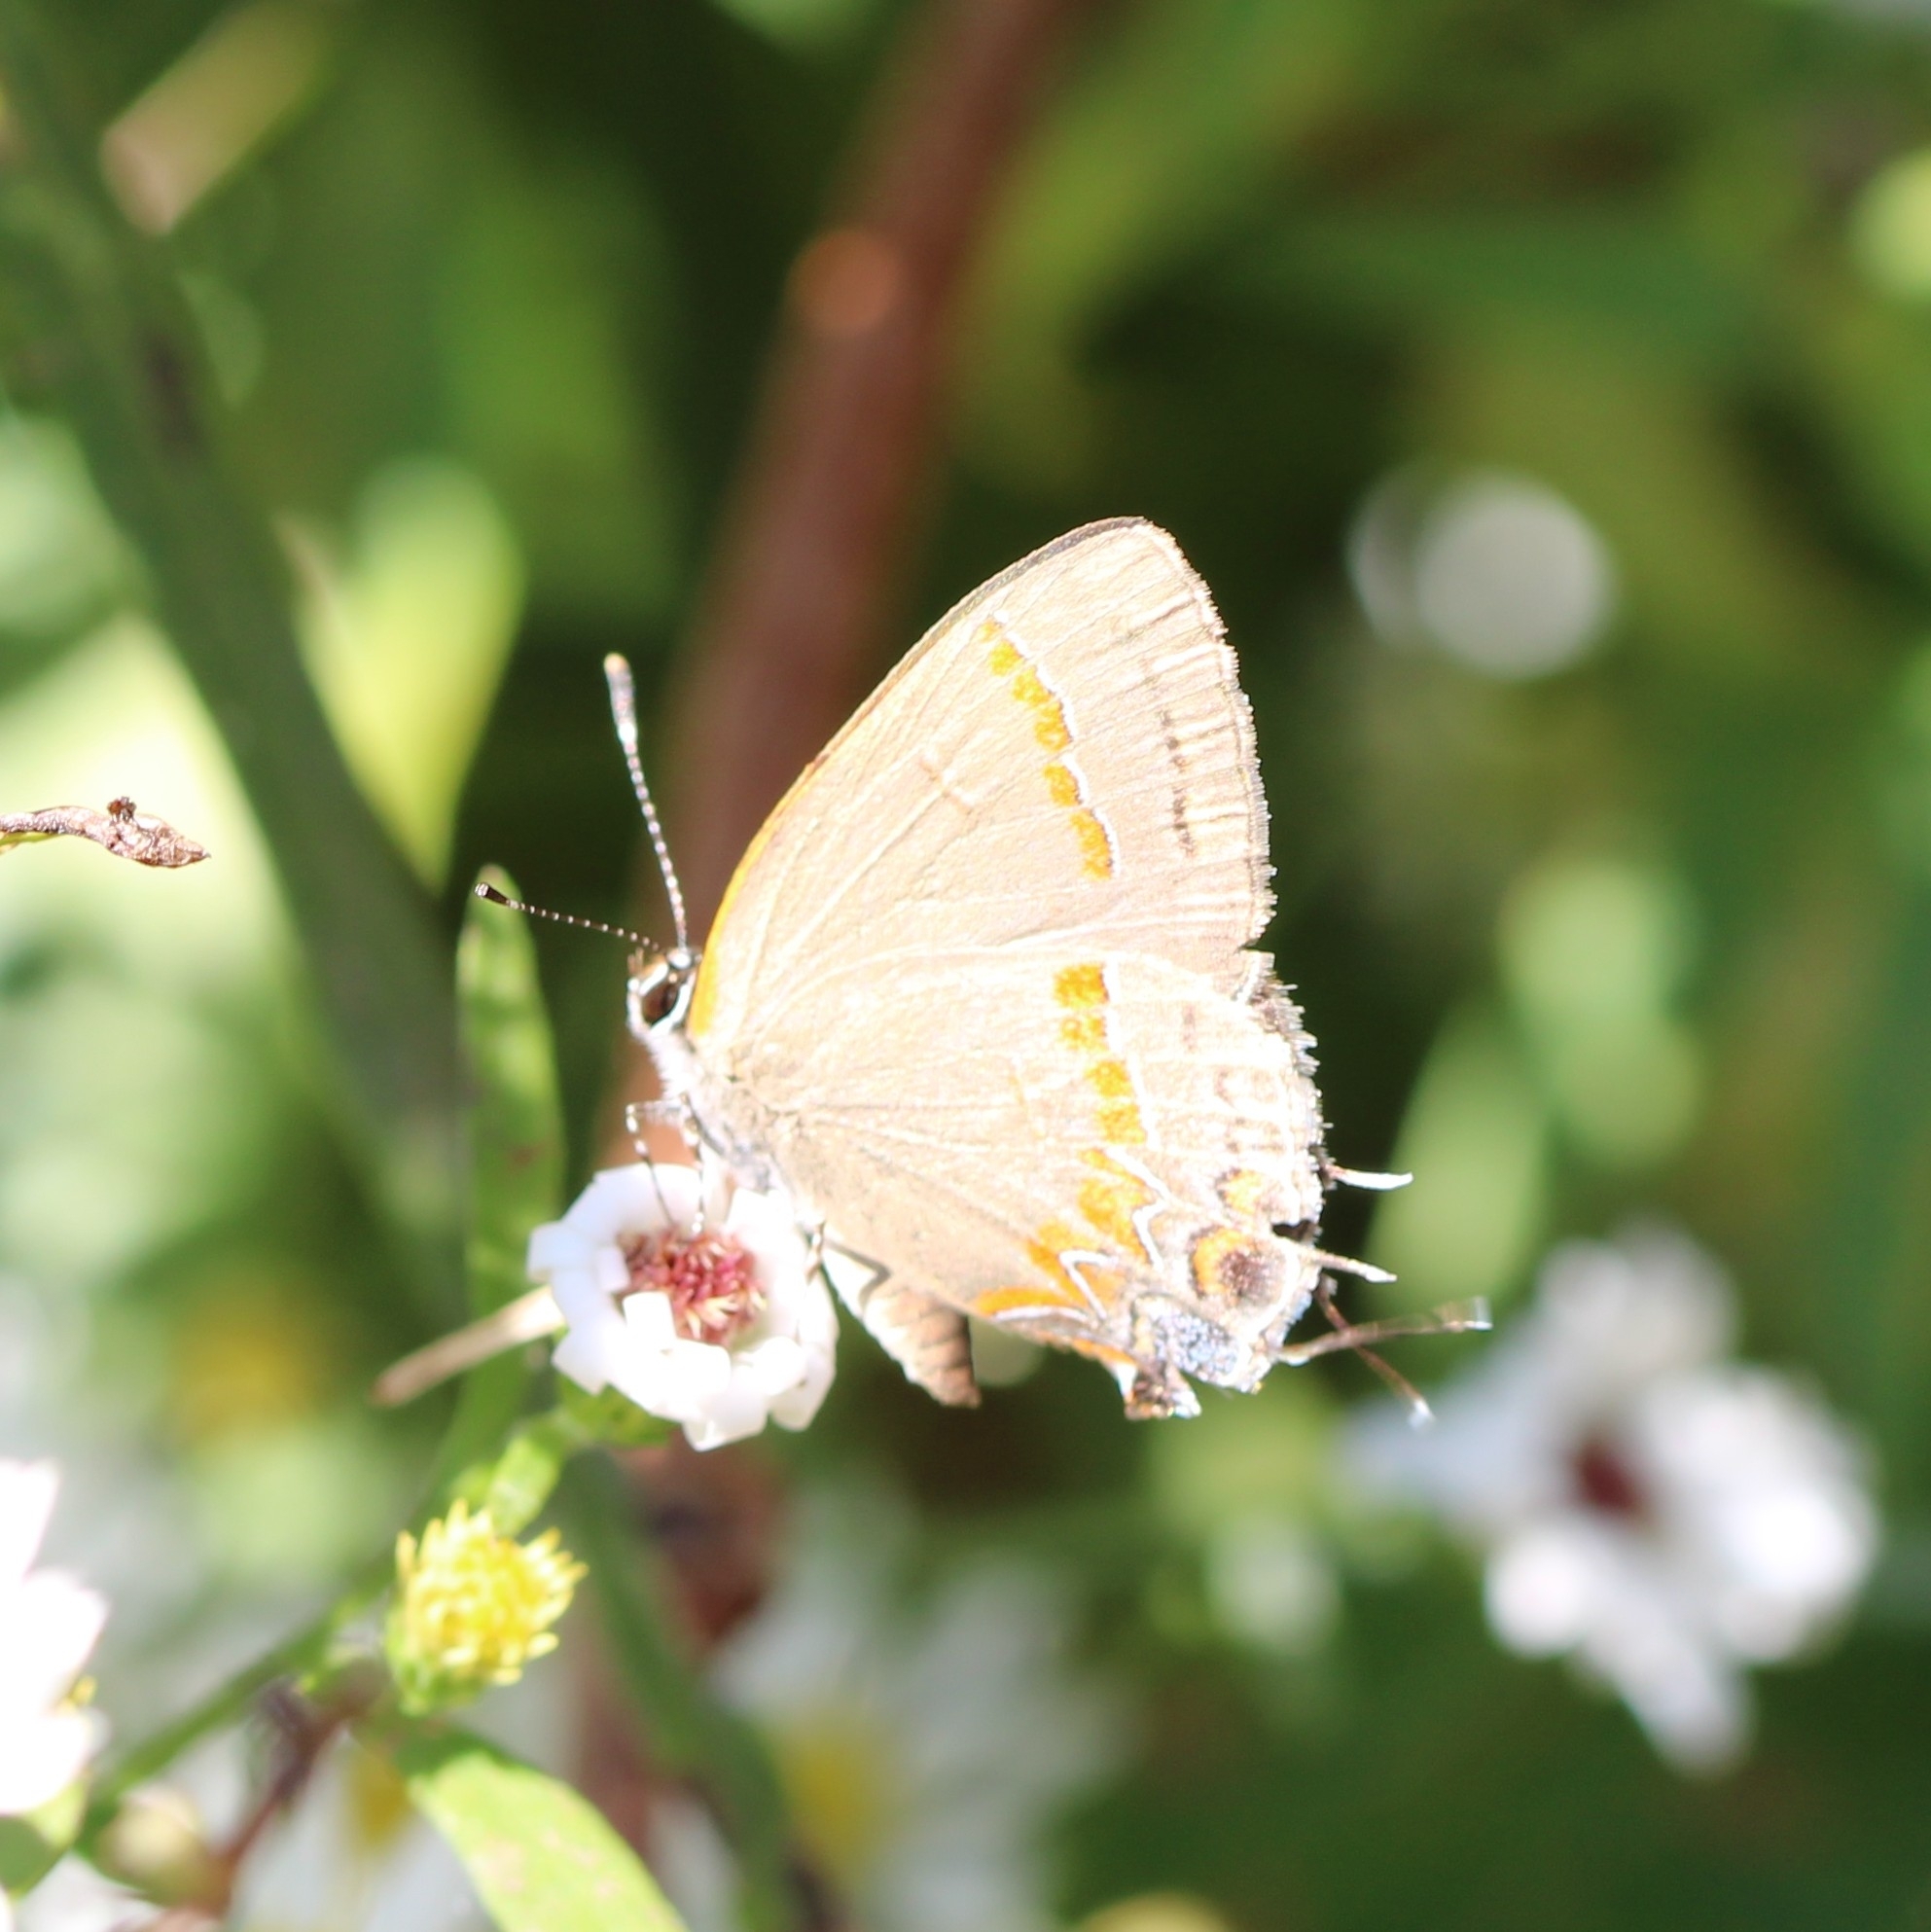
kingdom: Animalia
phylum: Arthropoda
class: Insecta
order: Lepidoptera
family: Lycaenidae
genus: Calycopis
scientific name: Calycopis cecrops
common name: Red-banded hairstreak
